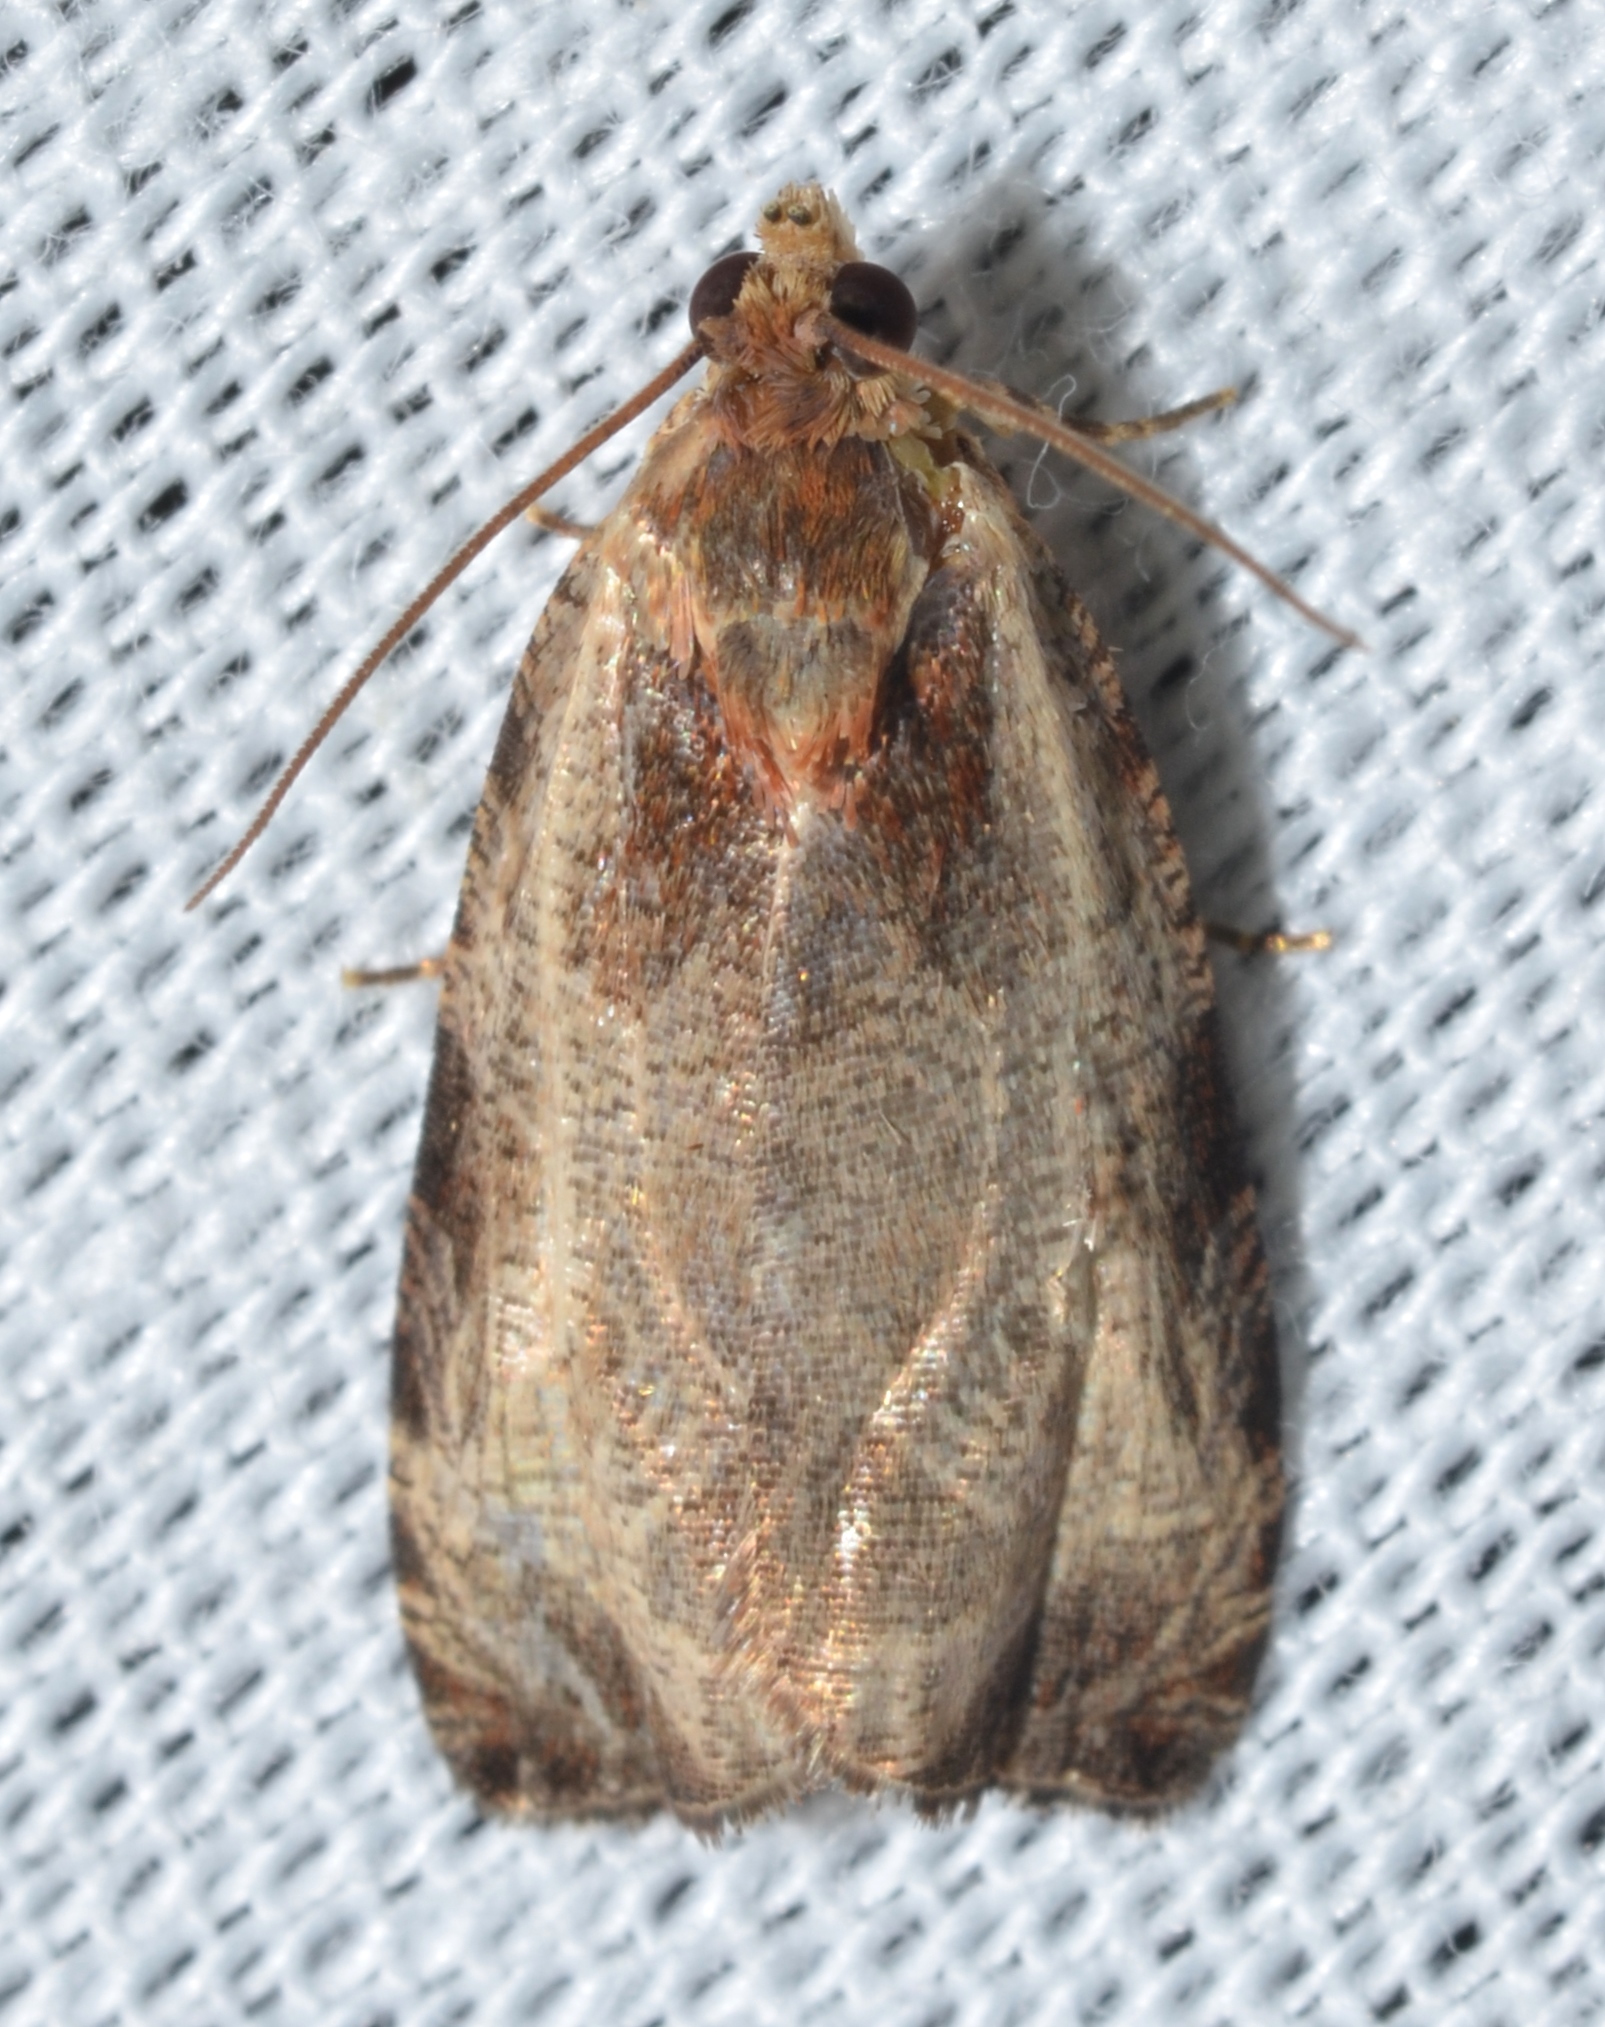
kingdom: Animalia
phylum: Arthropoda
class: Insecta
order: Lepidoptera
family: Tortricidae
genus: Olethreutes
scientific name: Olethreutes inornatana
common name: Inornate olethreutes moth
